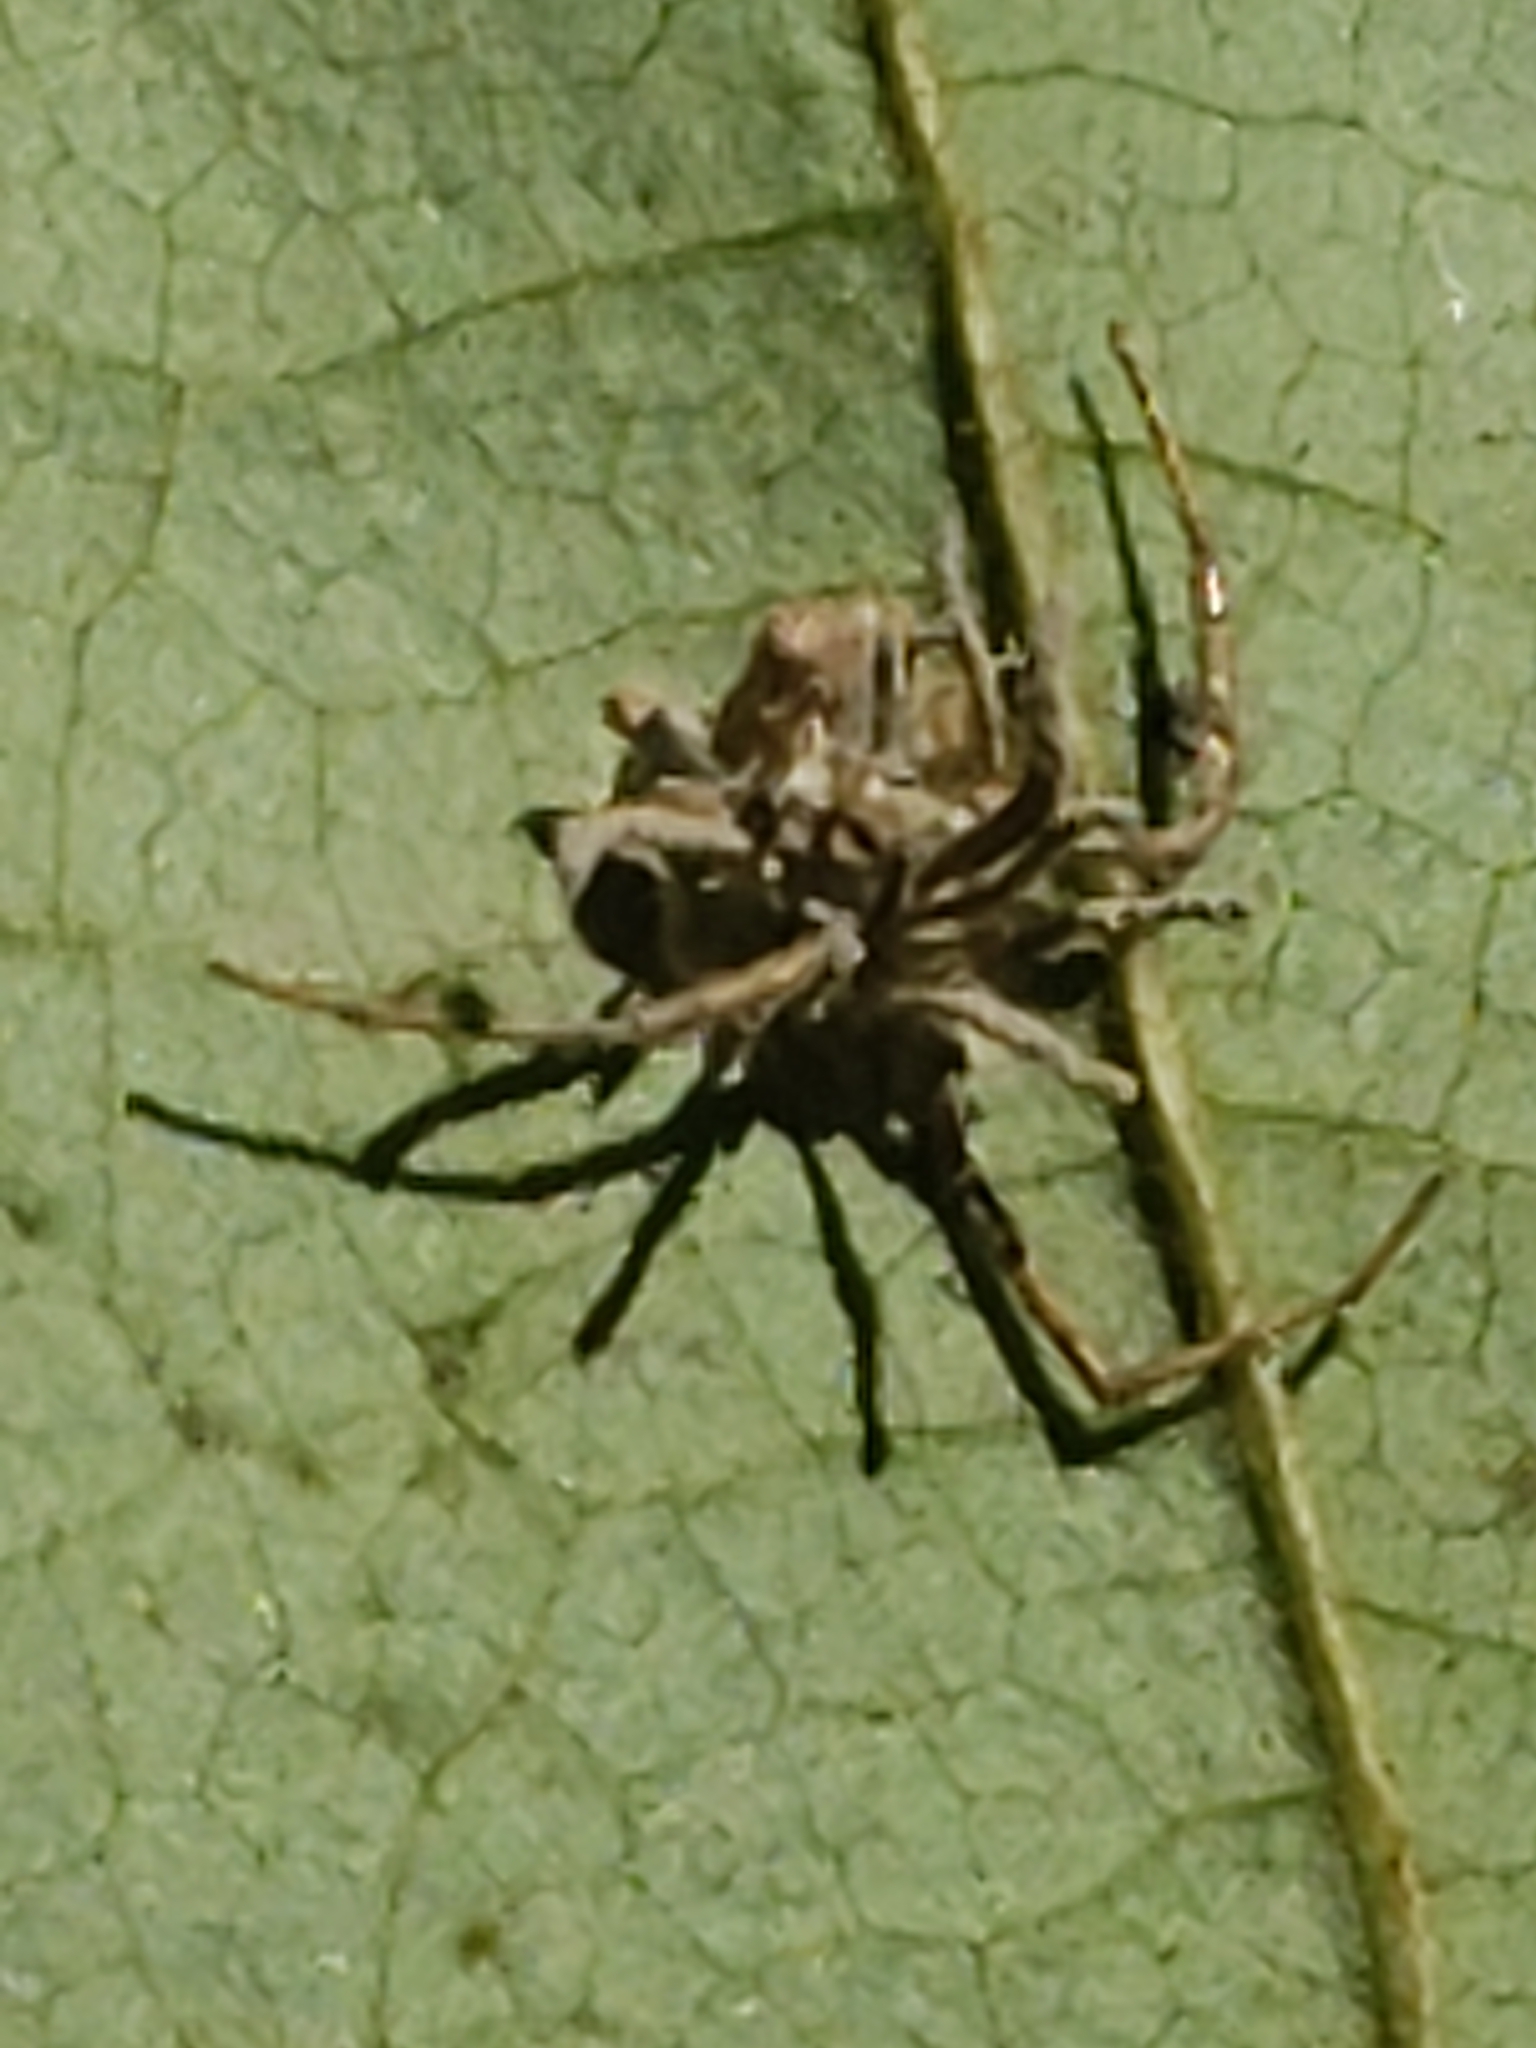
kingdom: Fungi
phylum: Ascomycota
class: Sordariomycetes
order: Hypocreales
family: Cordycipitaceae
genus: Gibellula
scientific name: Gibellula arachnophila
